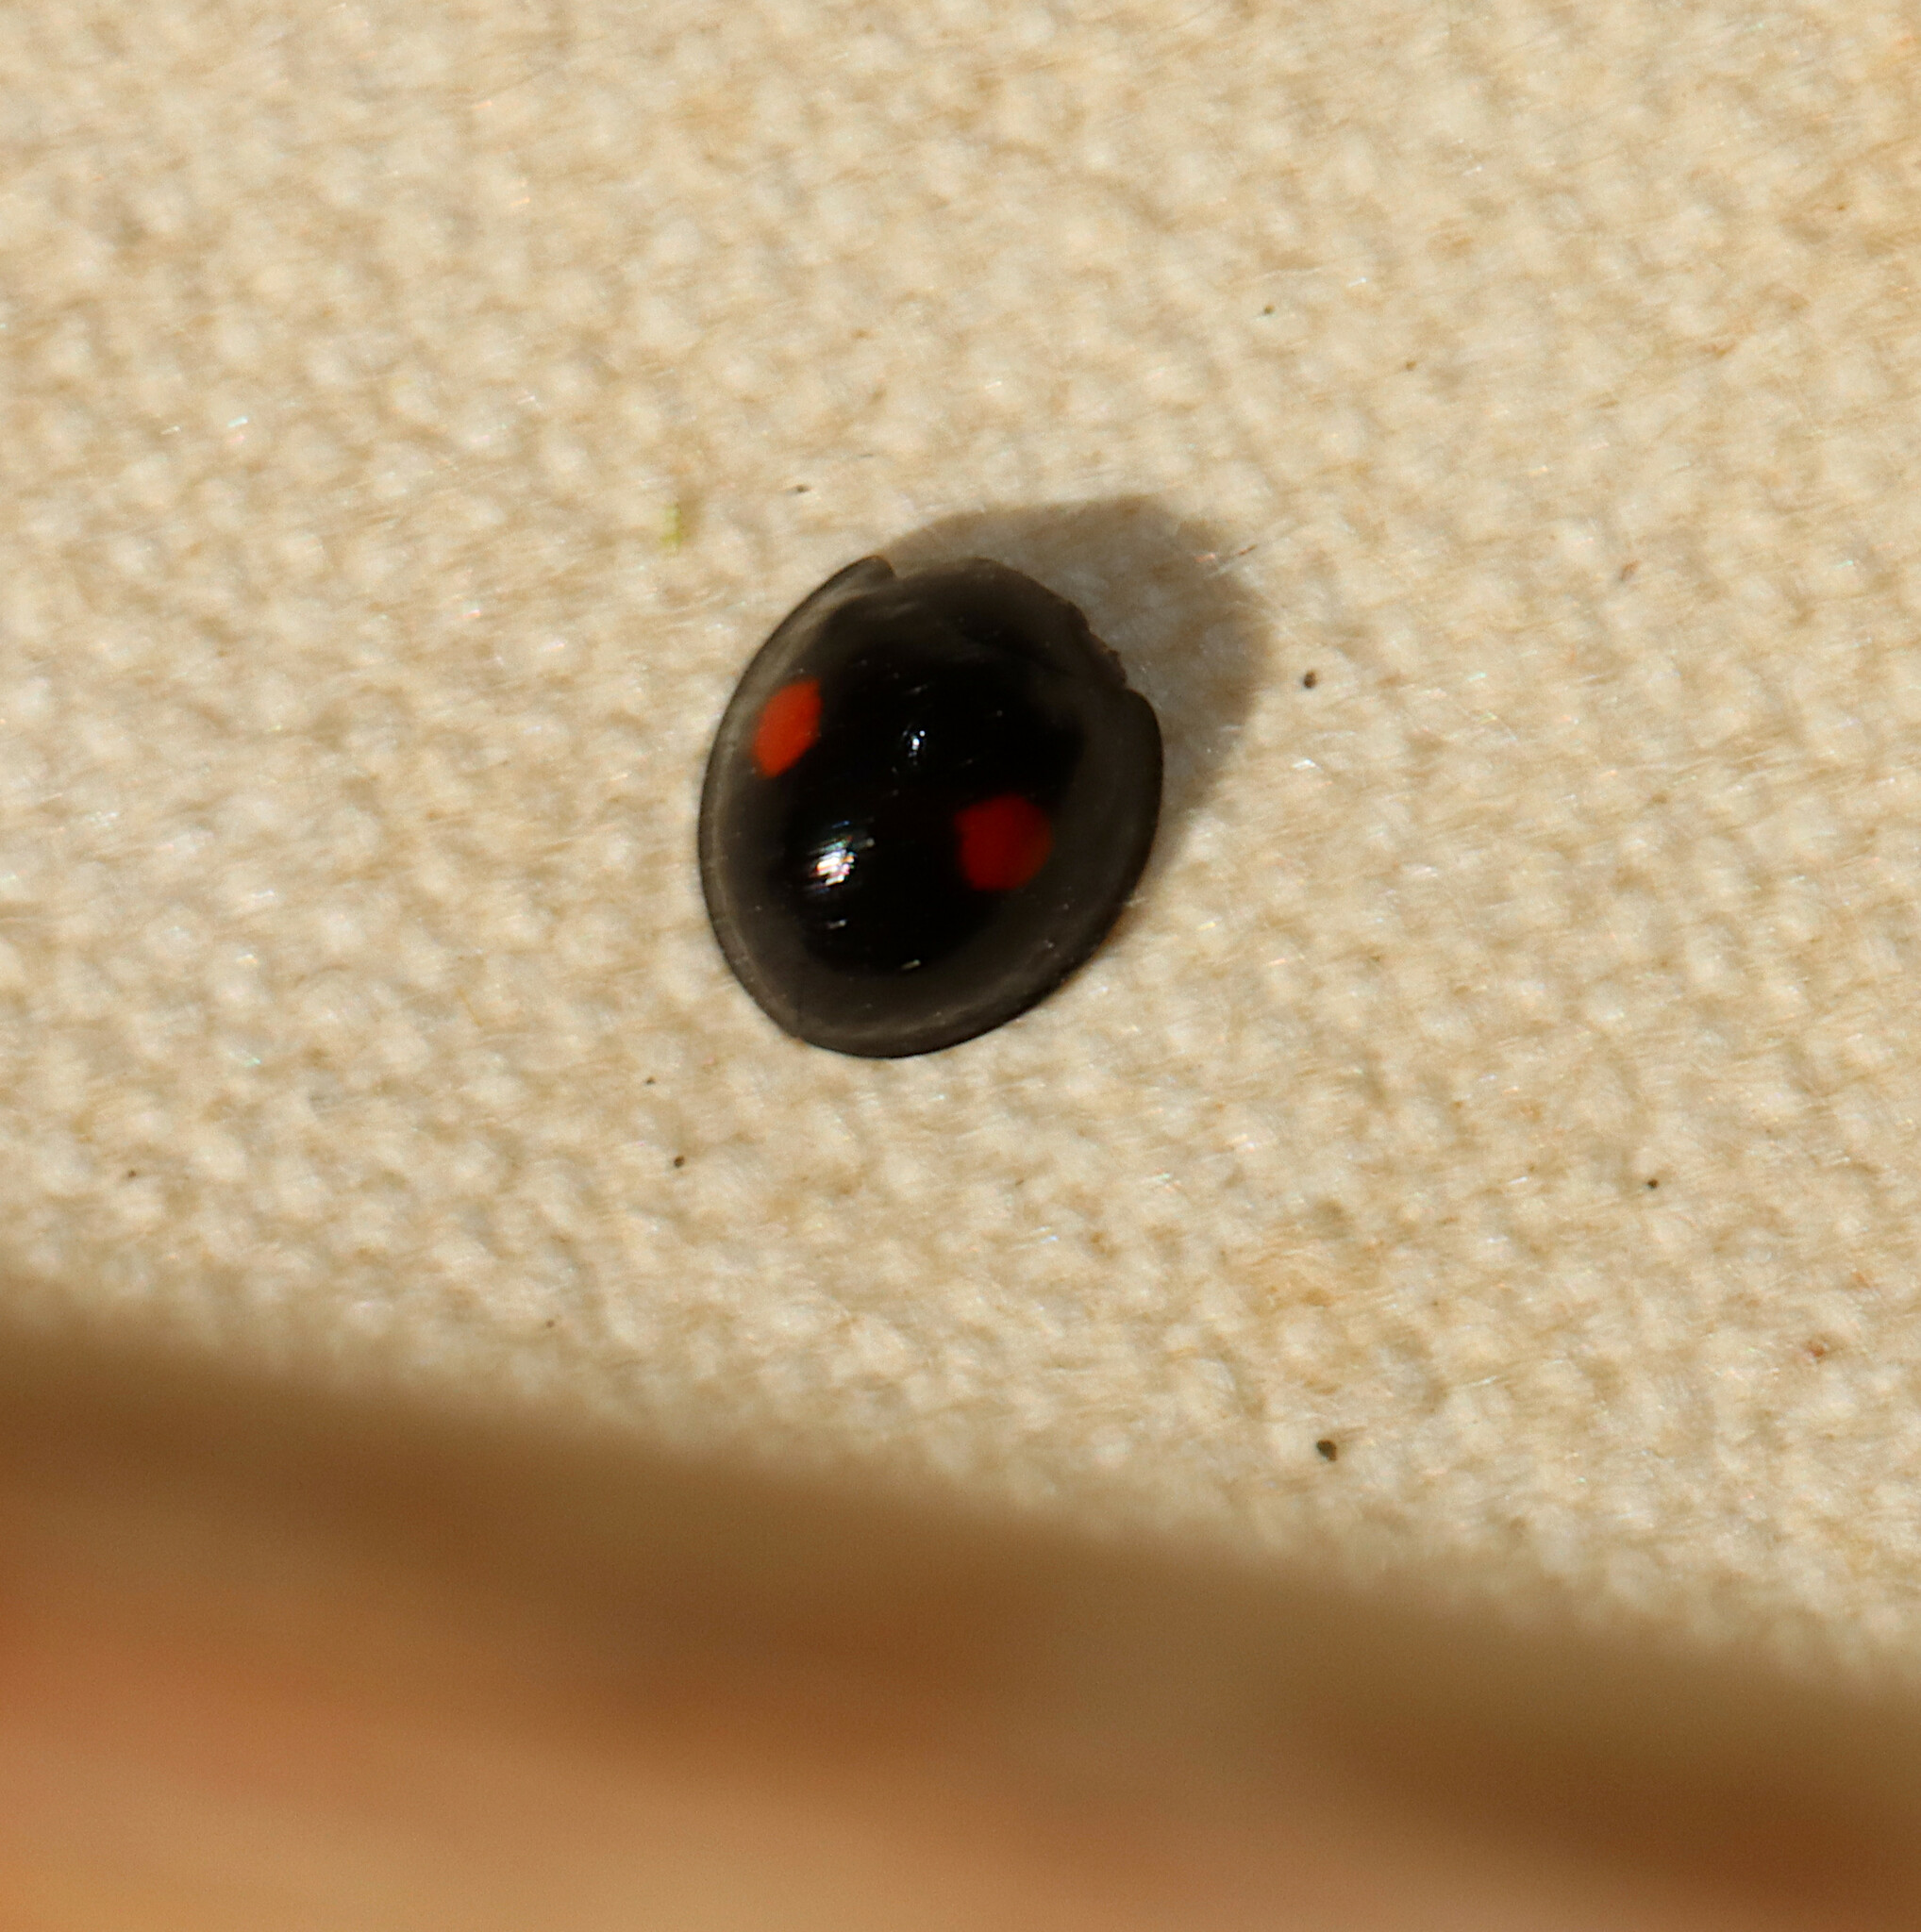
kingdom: Animalia
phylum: Arthropoda
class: Insecta
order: Coleoptera
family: Coccinellidae
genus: Chilocorus
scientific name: Chilocorus stigma
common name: Twicestabbed lady beetle
